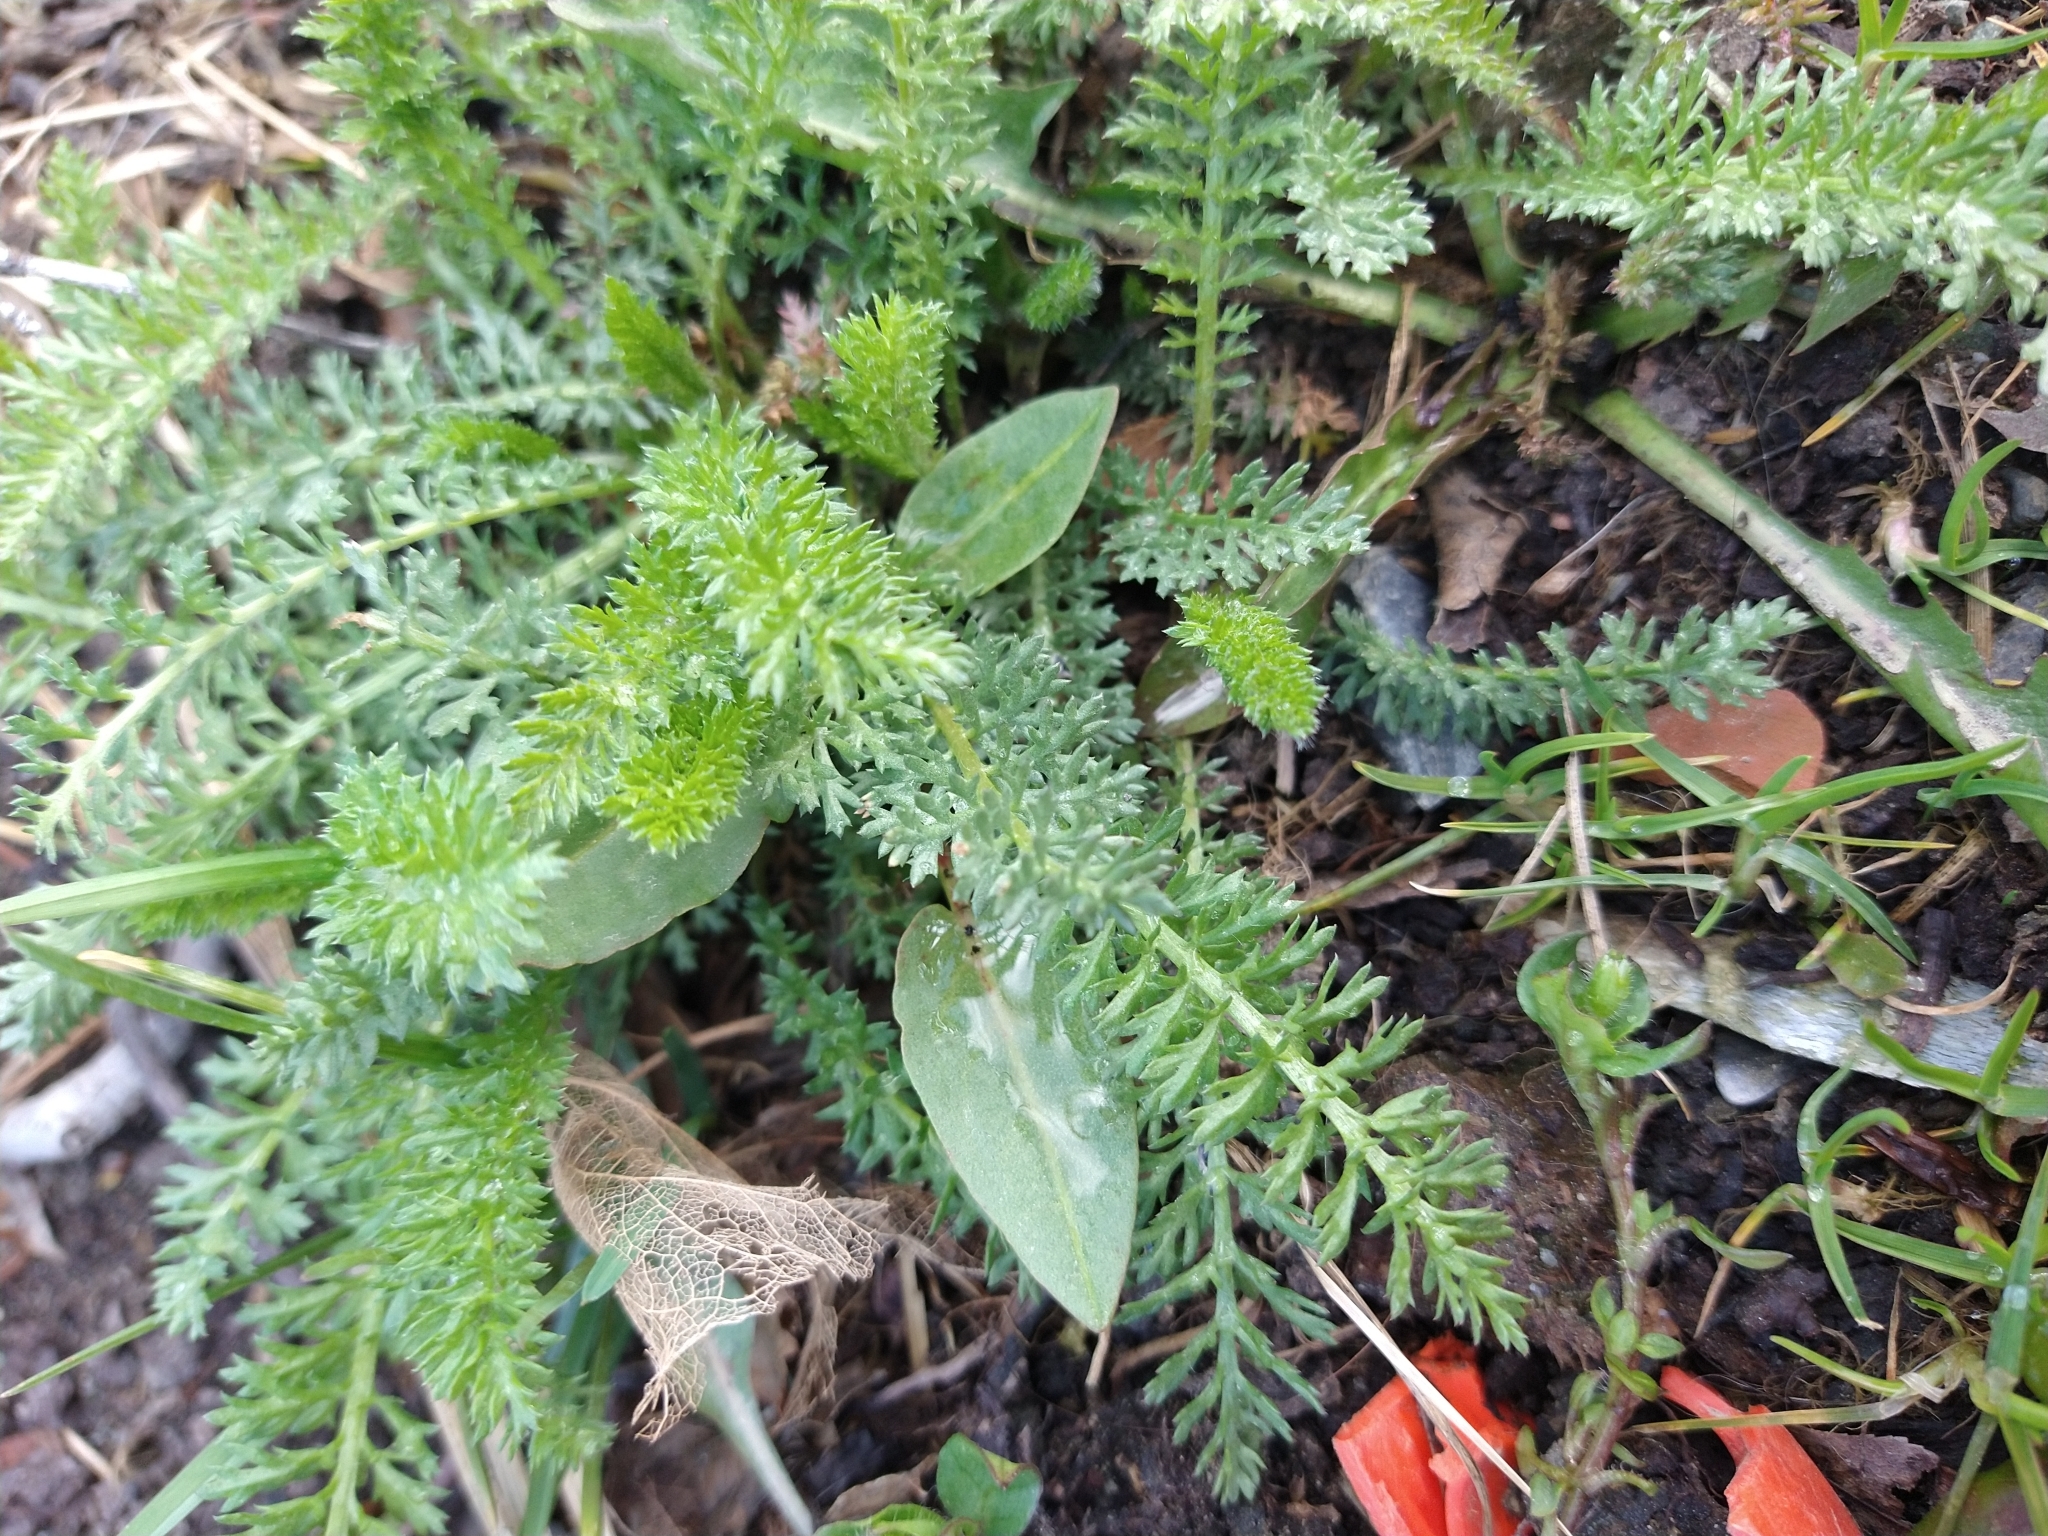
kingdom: Plantae
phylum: Tracheophyta
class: Magnoliopsida
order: Asterales
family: Asteraceae
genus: Achillea
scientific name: Achillea millefolium
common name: Yarrow
